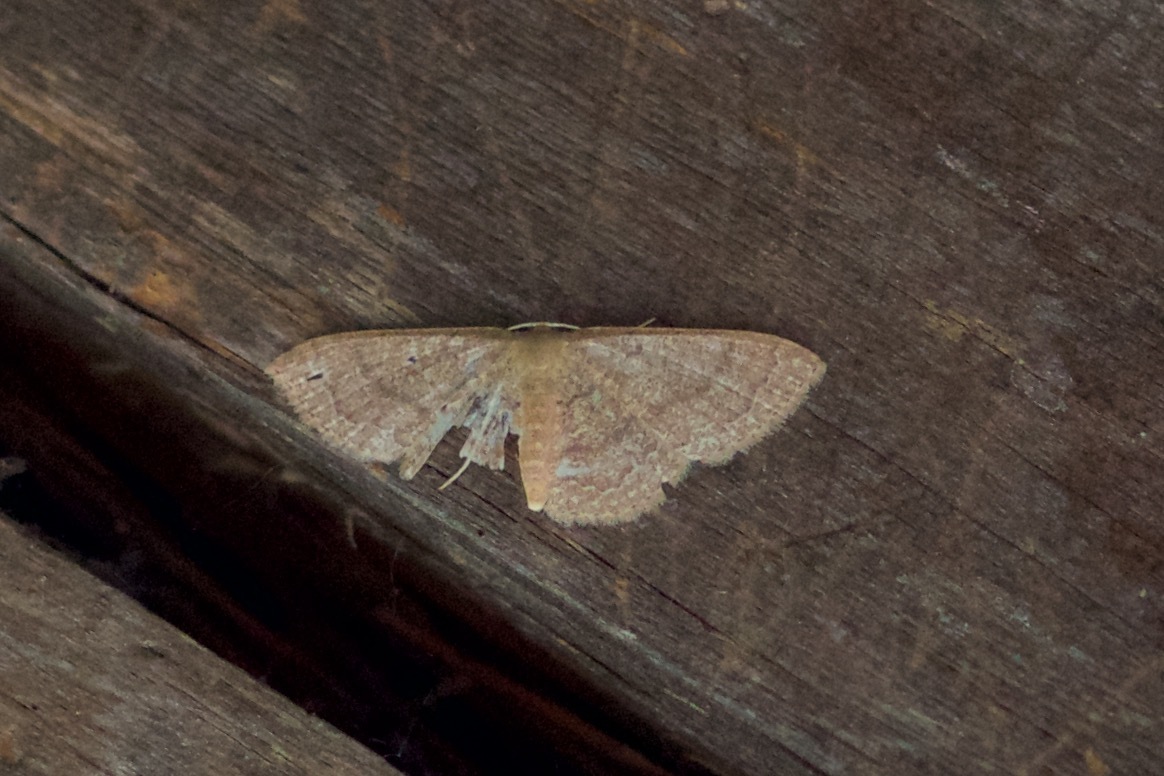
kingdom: Animalia
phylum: Arthropoda
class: Insecta
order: Lepidoptera
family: Geometridae
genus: Pleuroprucha
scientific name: Pleuroprucha insulsaria
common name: Common tan wave
